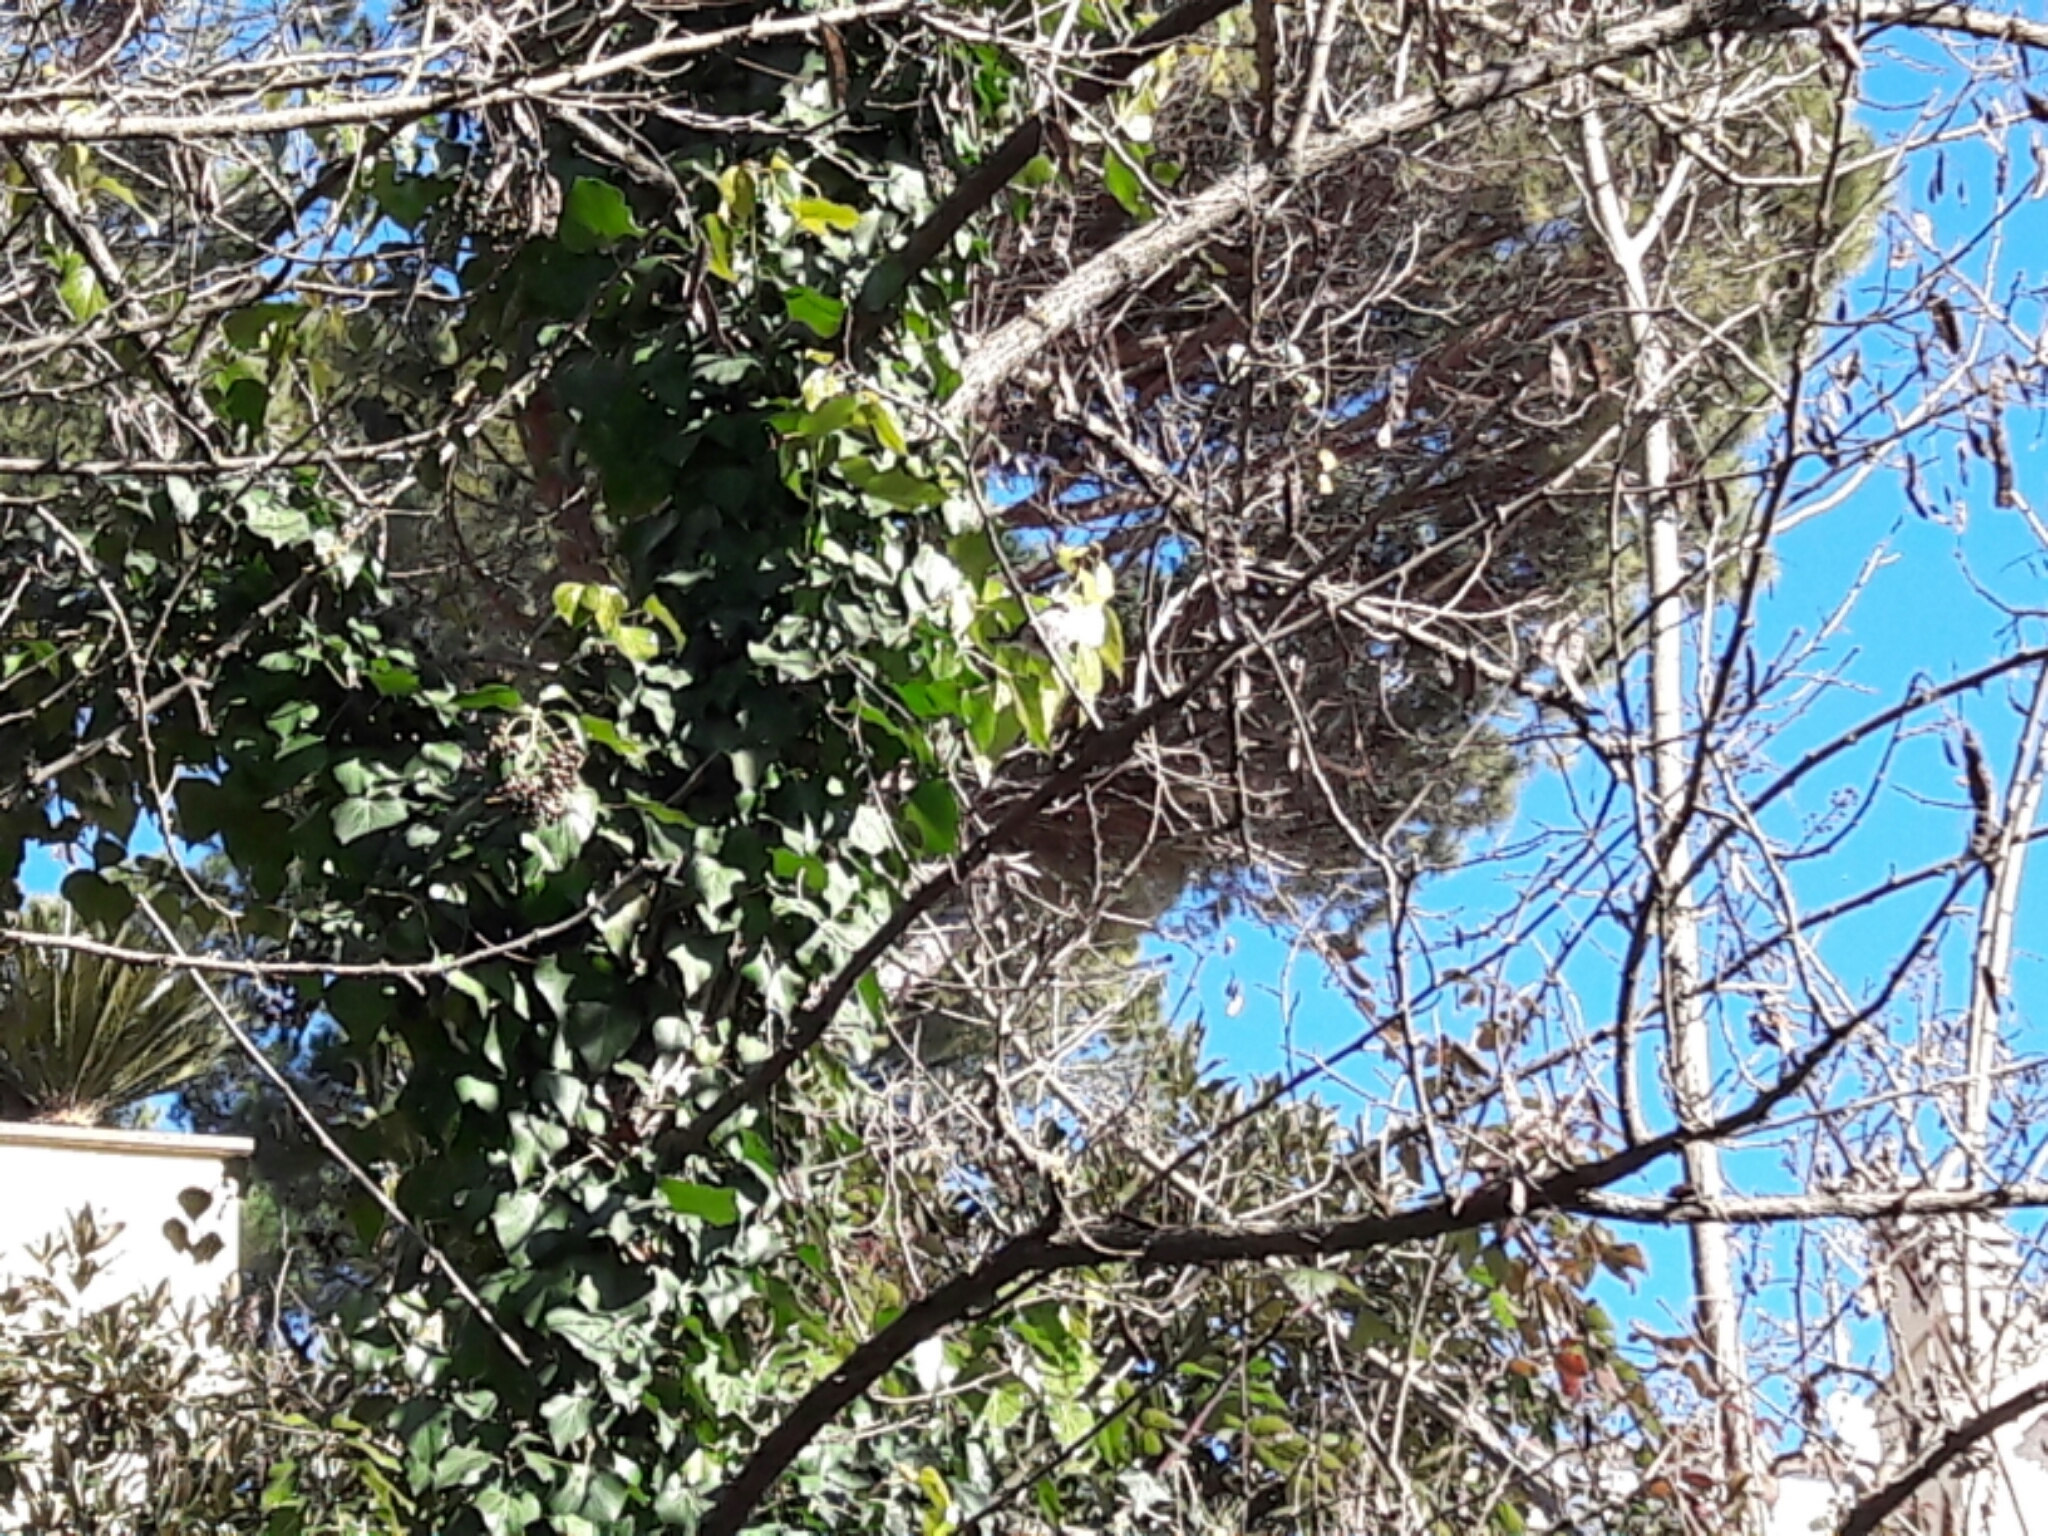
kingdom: Animalia
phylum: Chordata
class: Aves
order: Passeriformes
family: Aegithalidae
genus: Aegithalos
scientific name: Aegithalos caudatus
